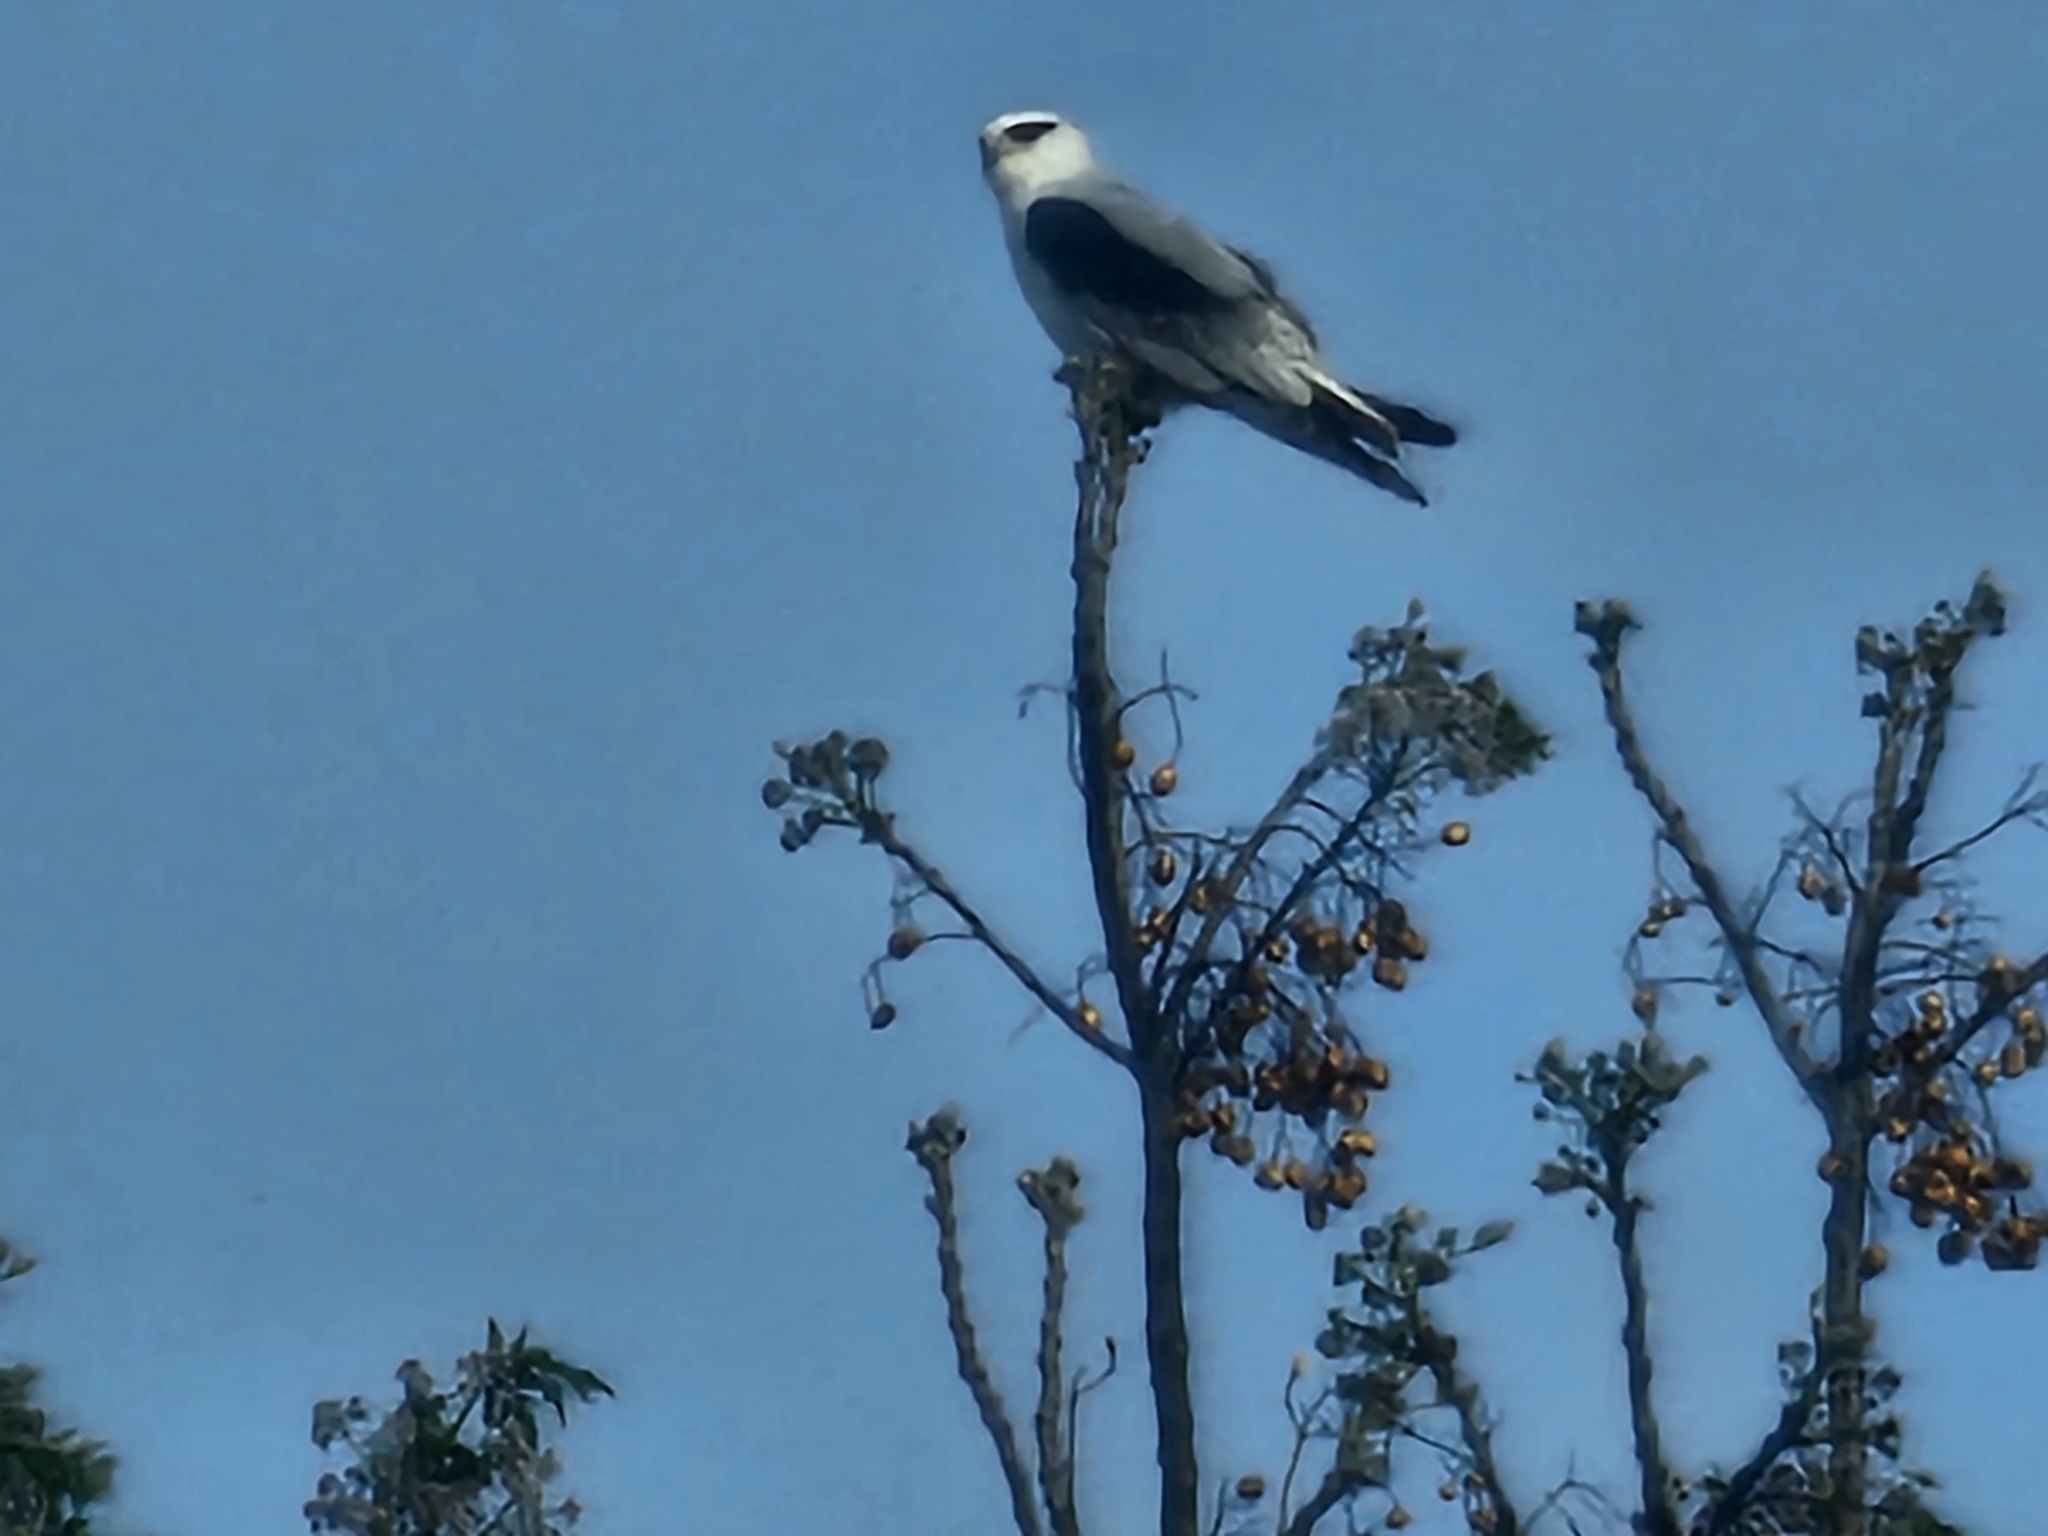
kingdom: Animalia
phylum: Chordata
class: Aves
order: Accipitriformes
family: Accipitridae
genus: Elanus
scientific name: Elanus caeruleus
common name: Black-winged kite
